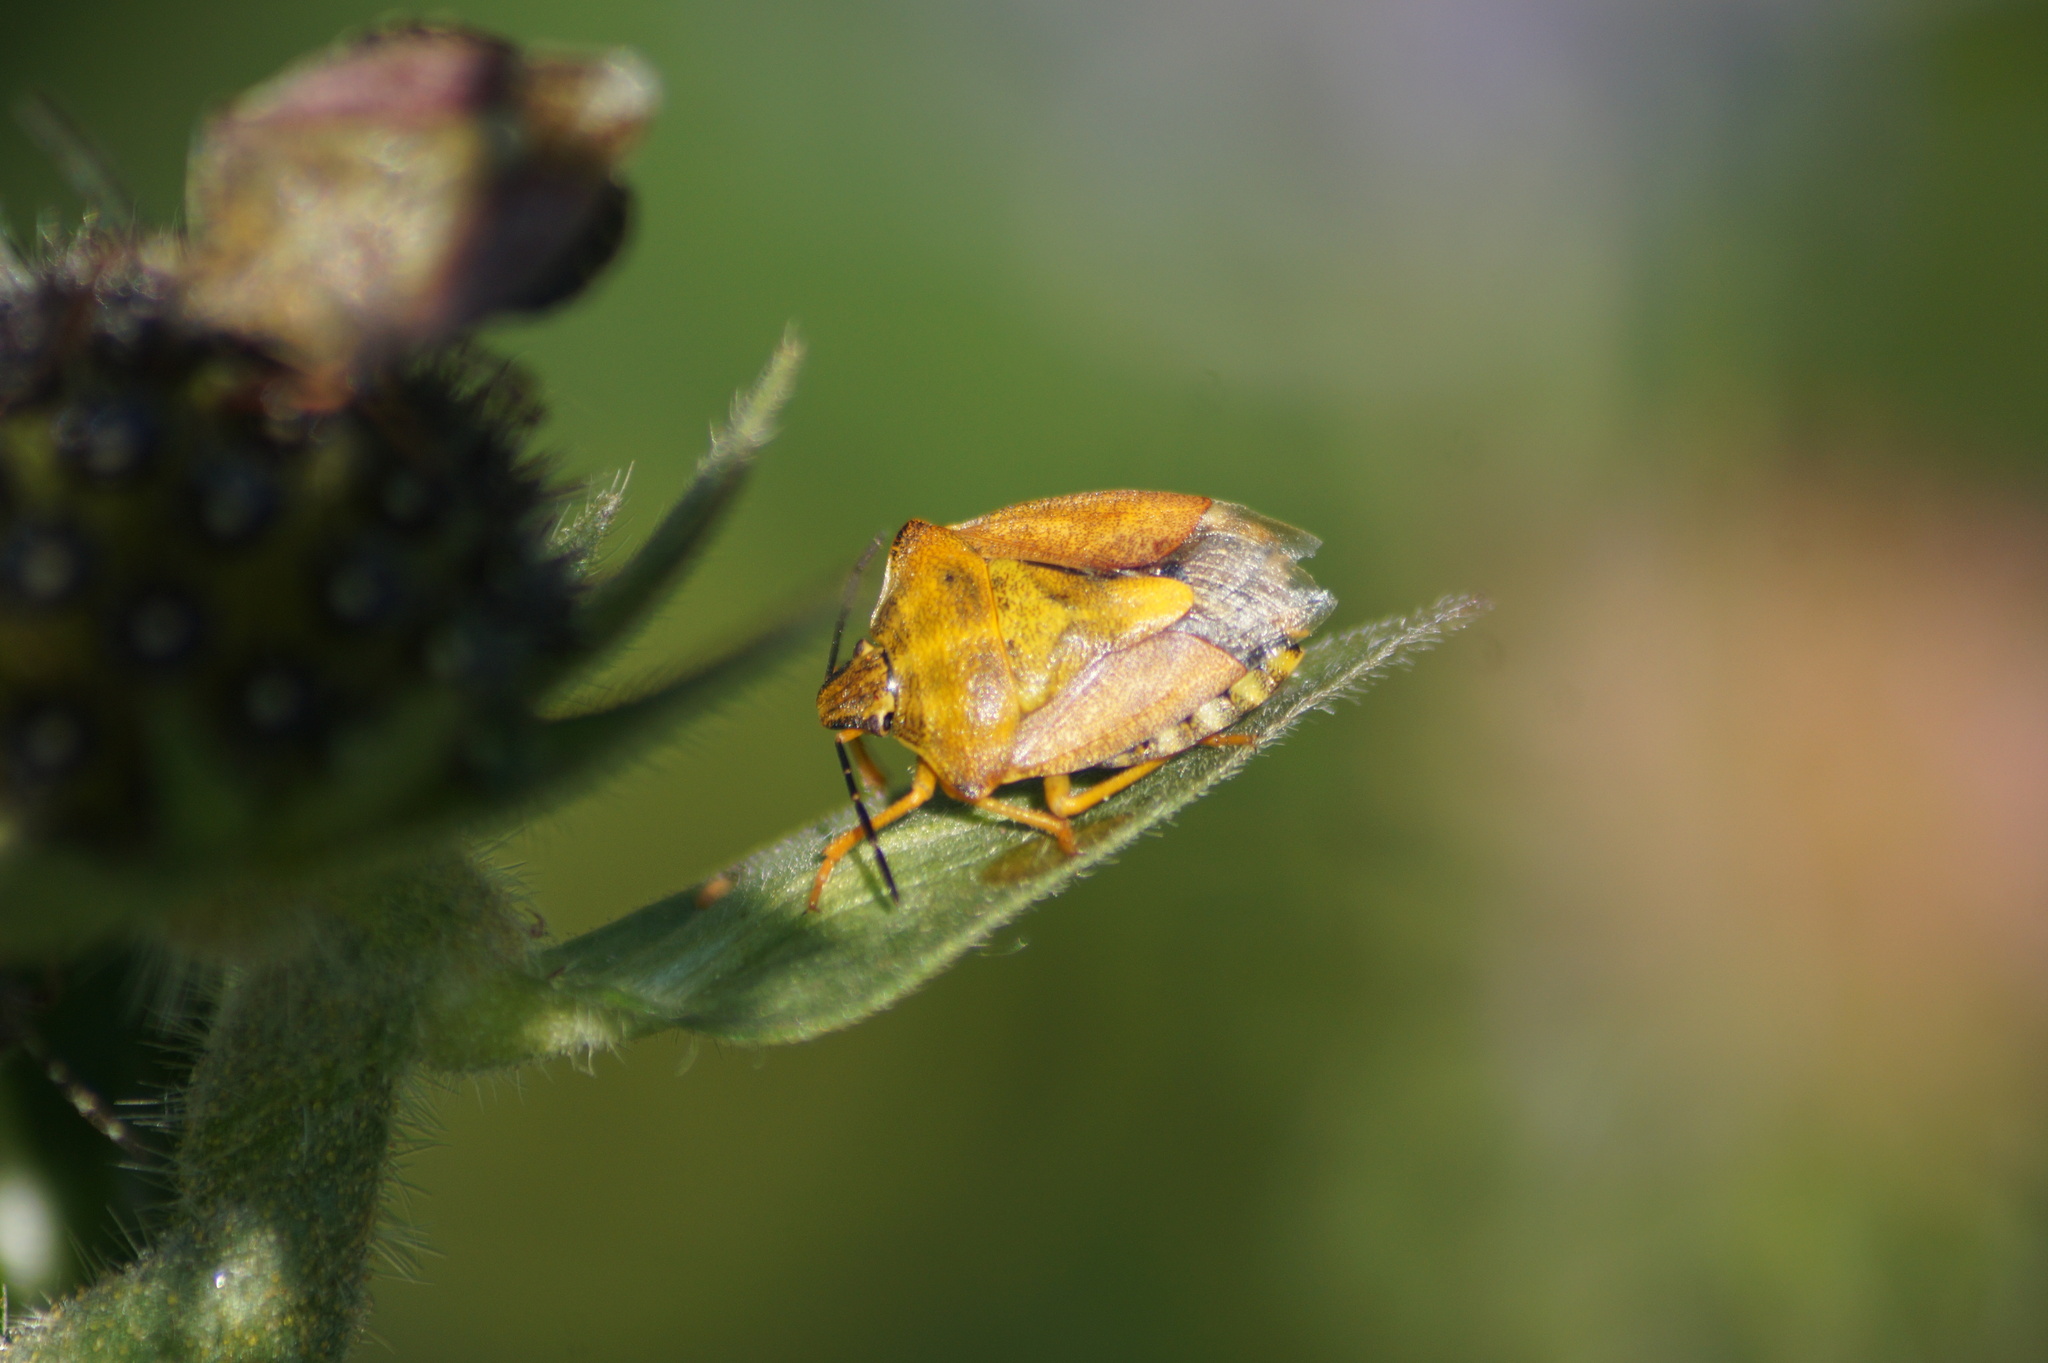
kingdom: Animalia
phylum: Arthropoda
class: Insecta
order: Hemiptera
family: Pentatomidae
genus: Carpocoris
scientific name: Carpocoris purpureipennis
